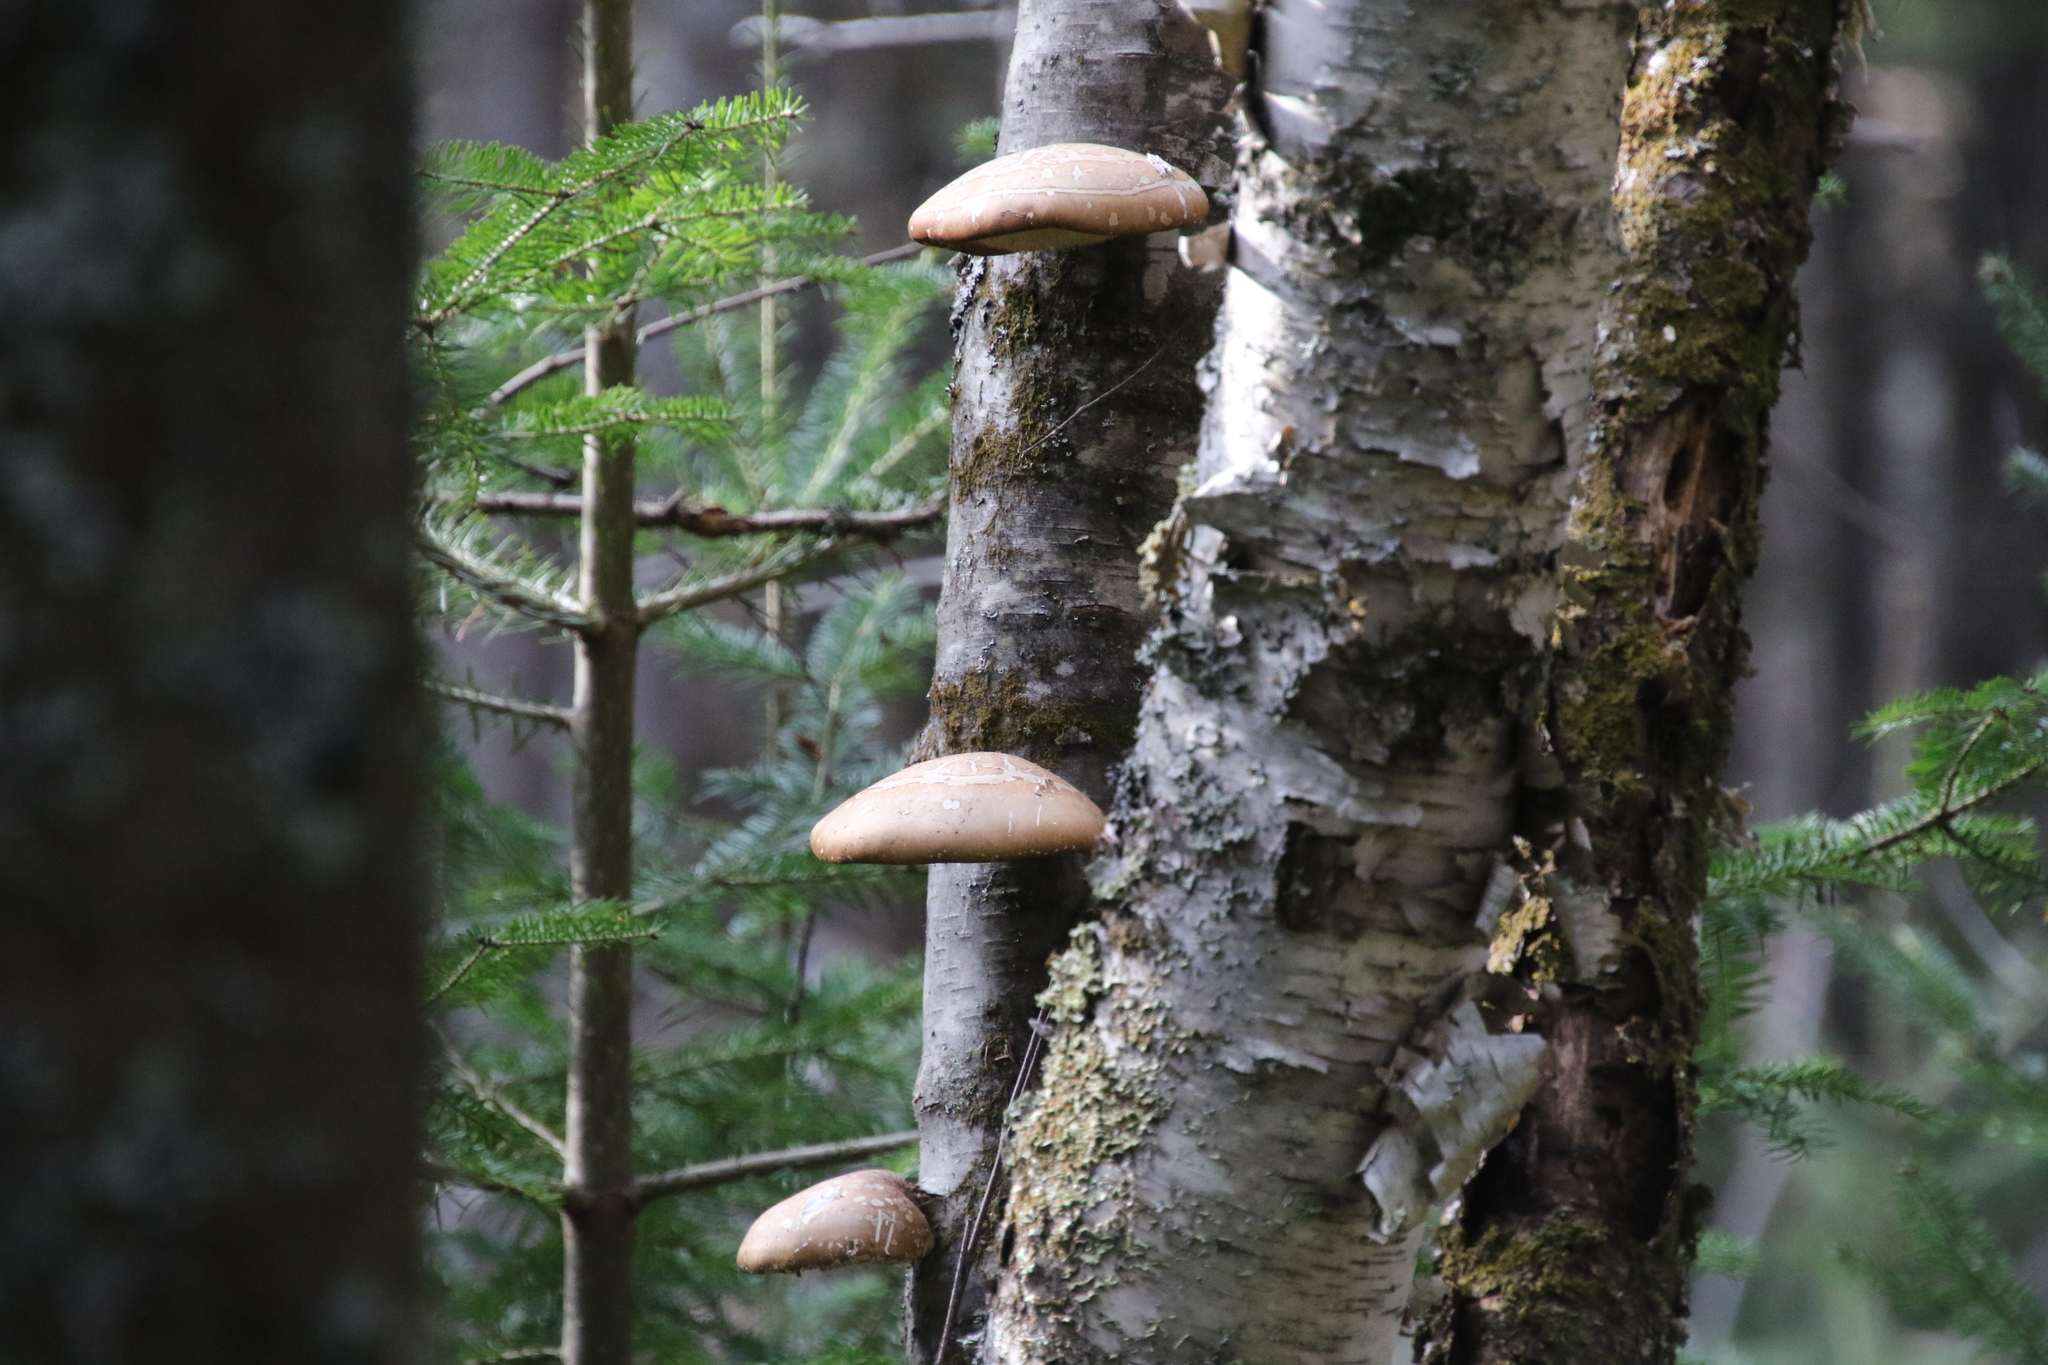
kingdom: Fungi
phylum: Basidiomycota
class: Agaricomycetes
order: Polyporales
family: Fomitopsidaceae
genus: Fomitopsis
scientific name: Fomitopsis betulina
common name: Birch polypore
